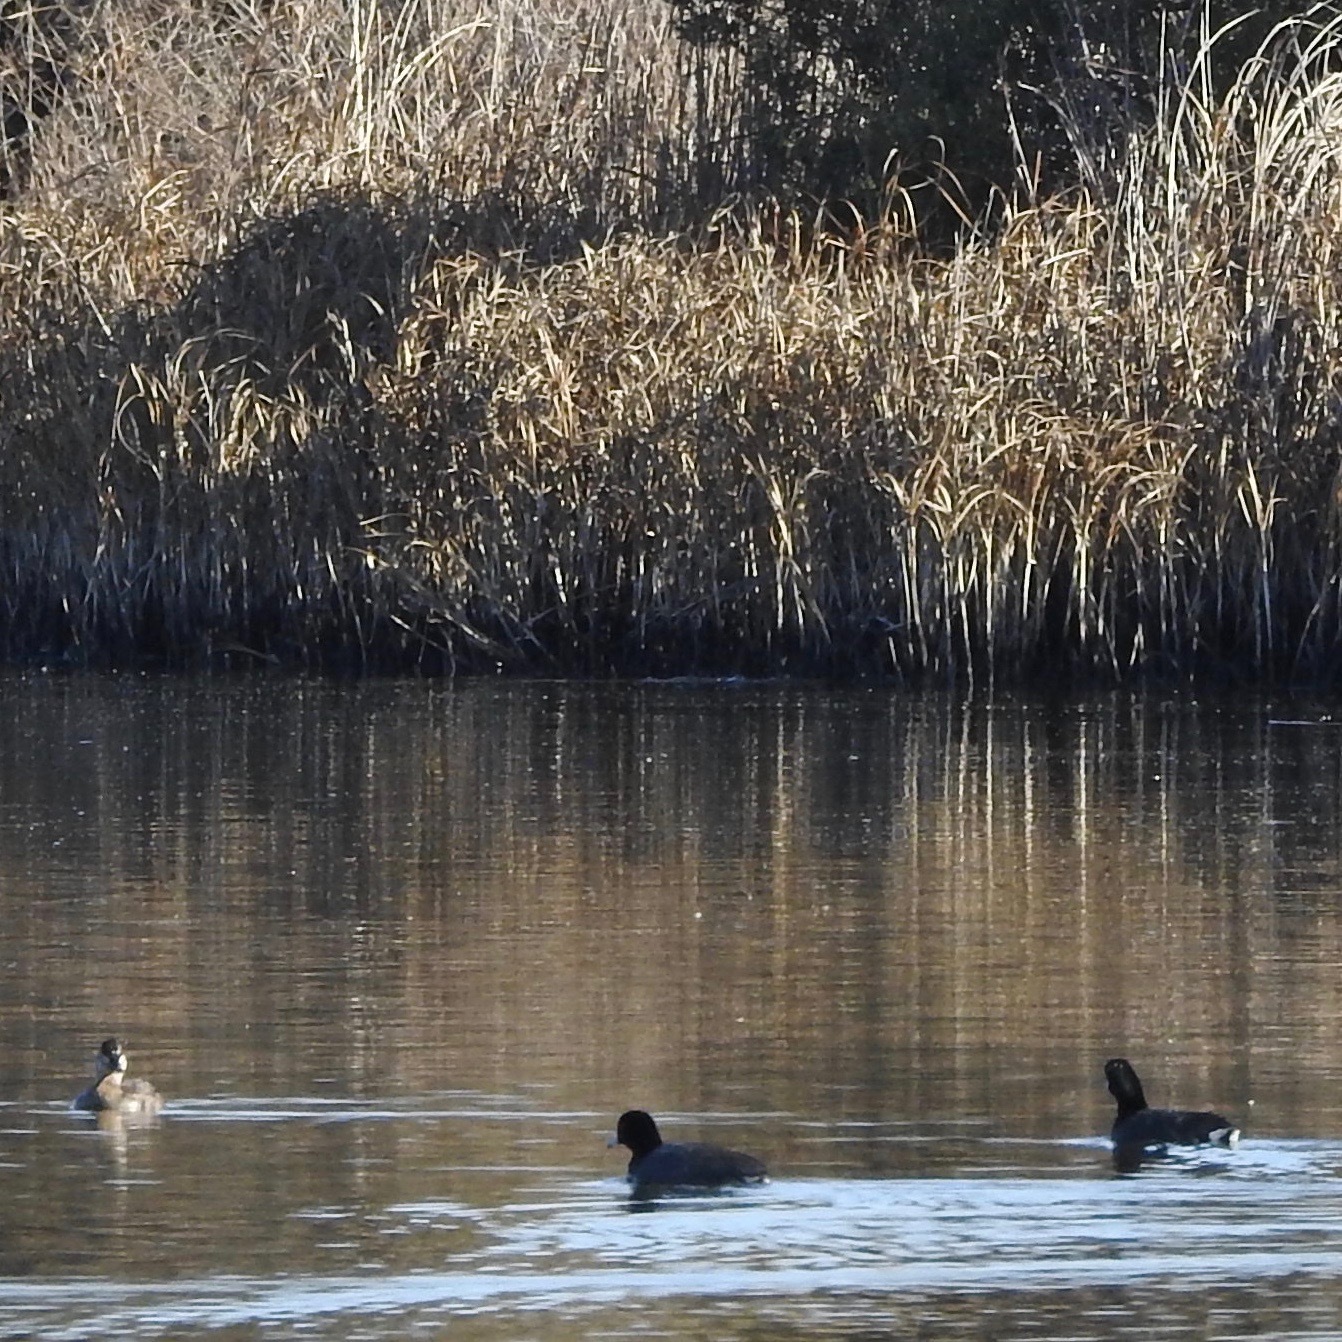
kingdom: Animalia
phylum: Chordata
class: Aves
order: Gruiformes
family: Rallidae
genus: Fulica
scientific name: Fulica americana
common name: American coot
